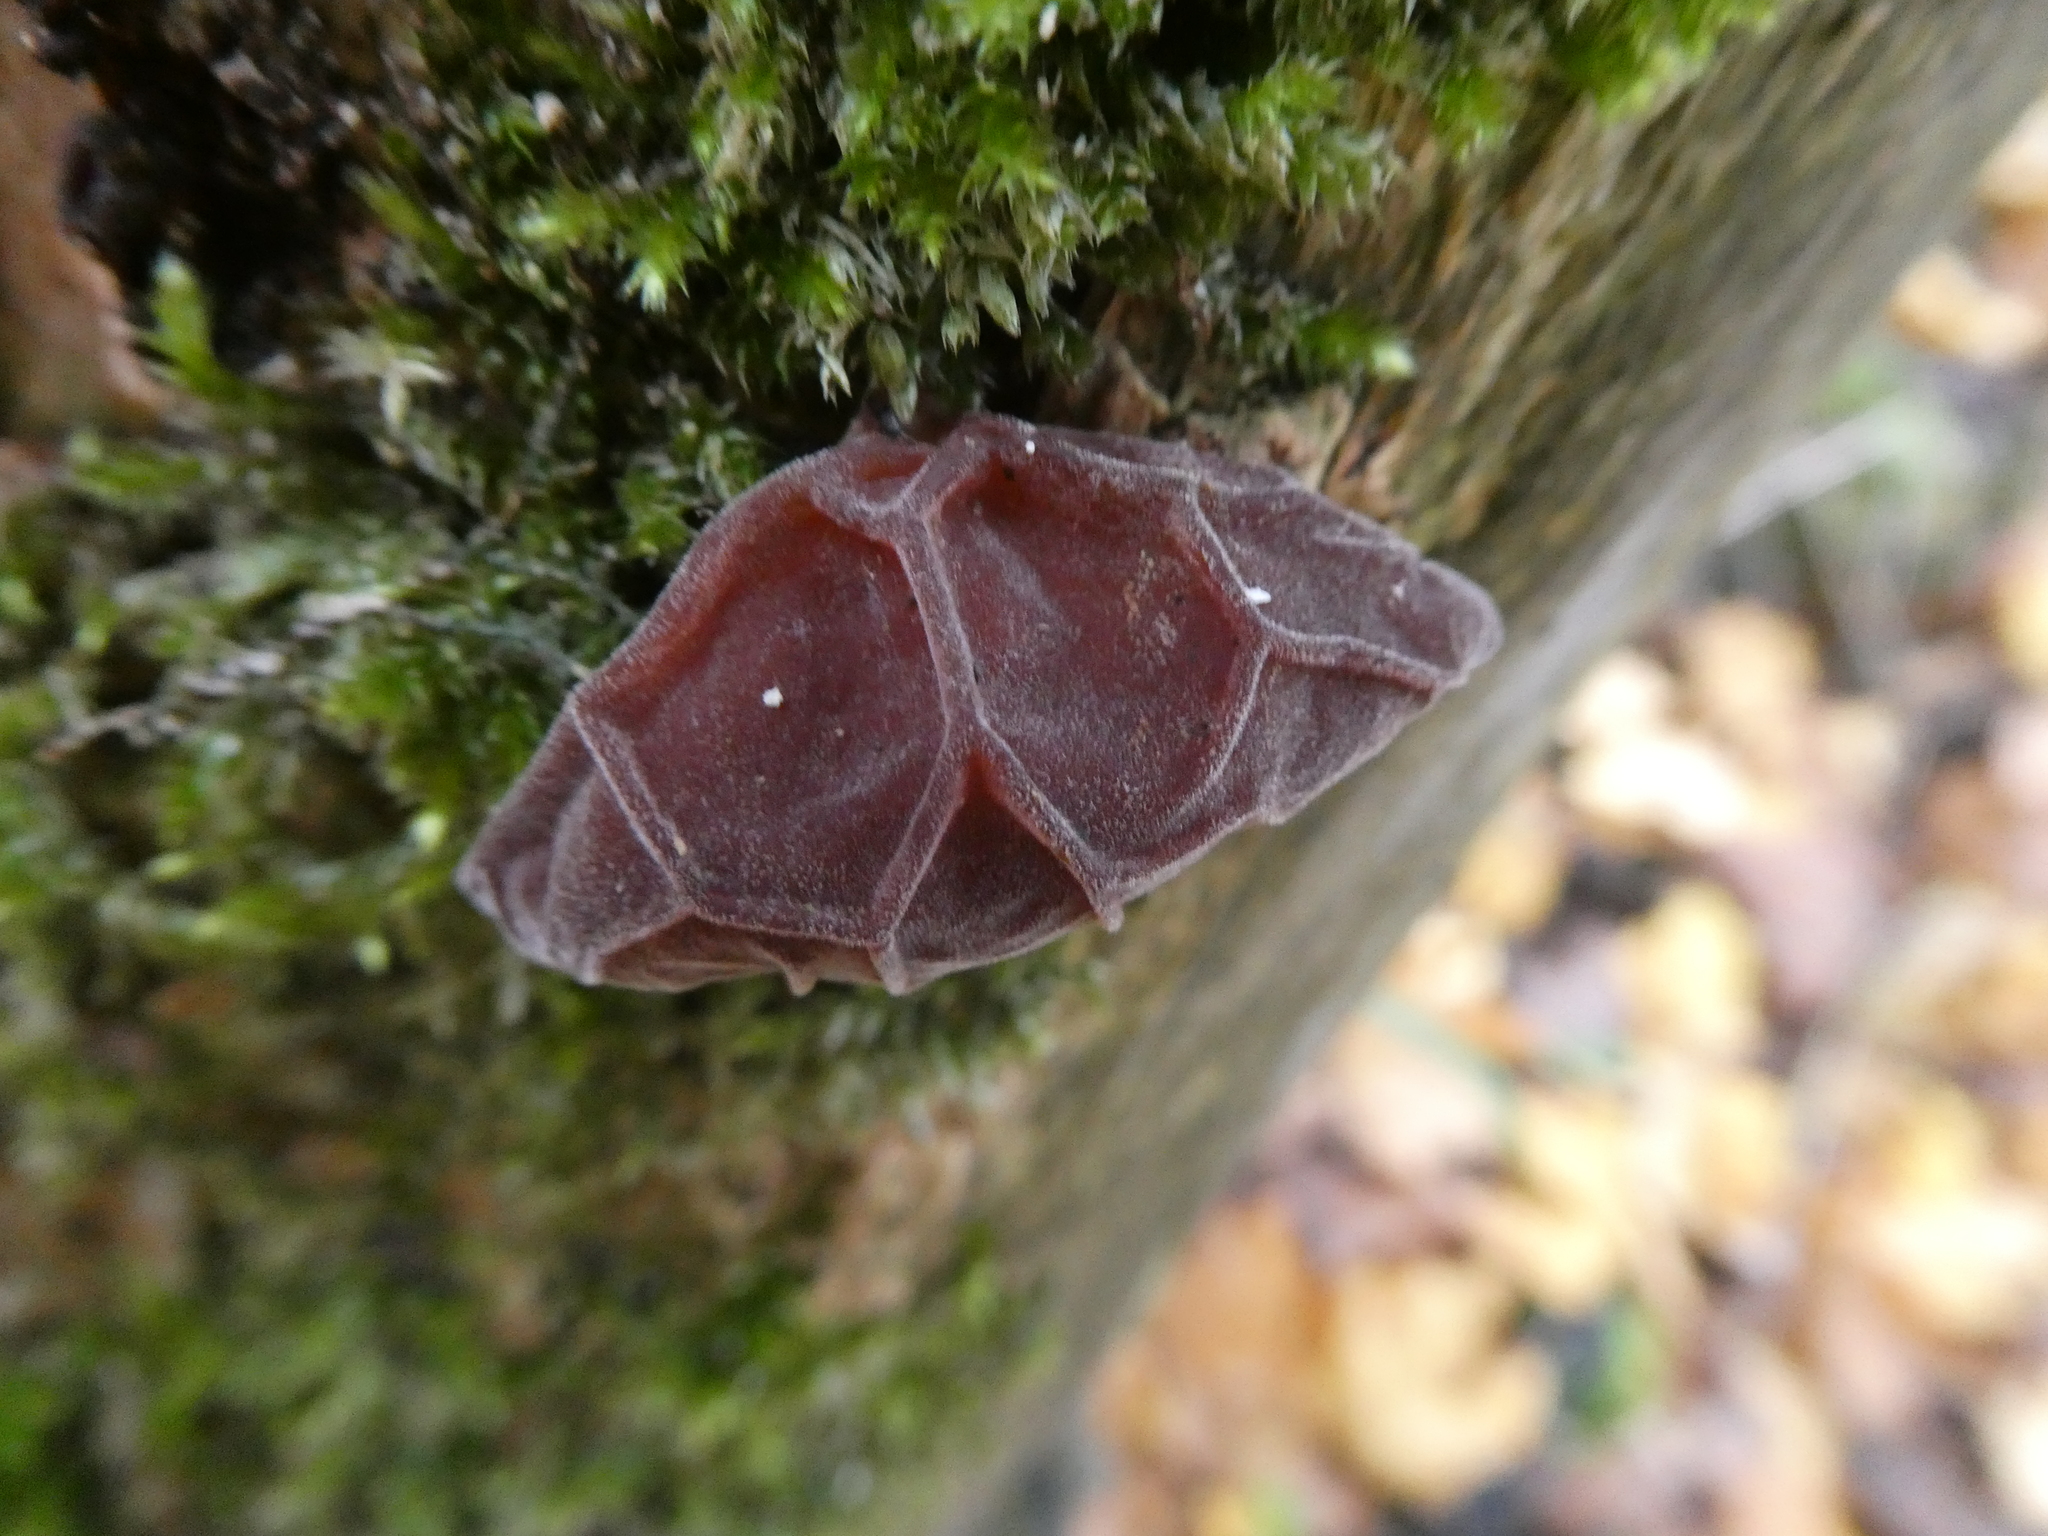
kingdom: Fungi
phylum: Basidiomycota
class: Agaricomycetes
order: Auriculariales
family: Auriculariaceae
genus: Auricularia
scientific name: Auricularia auricula-judae
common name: Jelly ear
